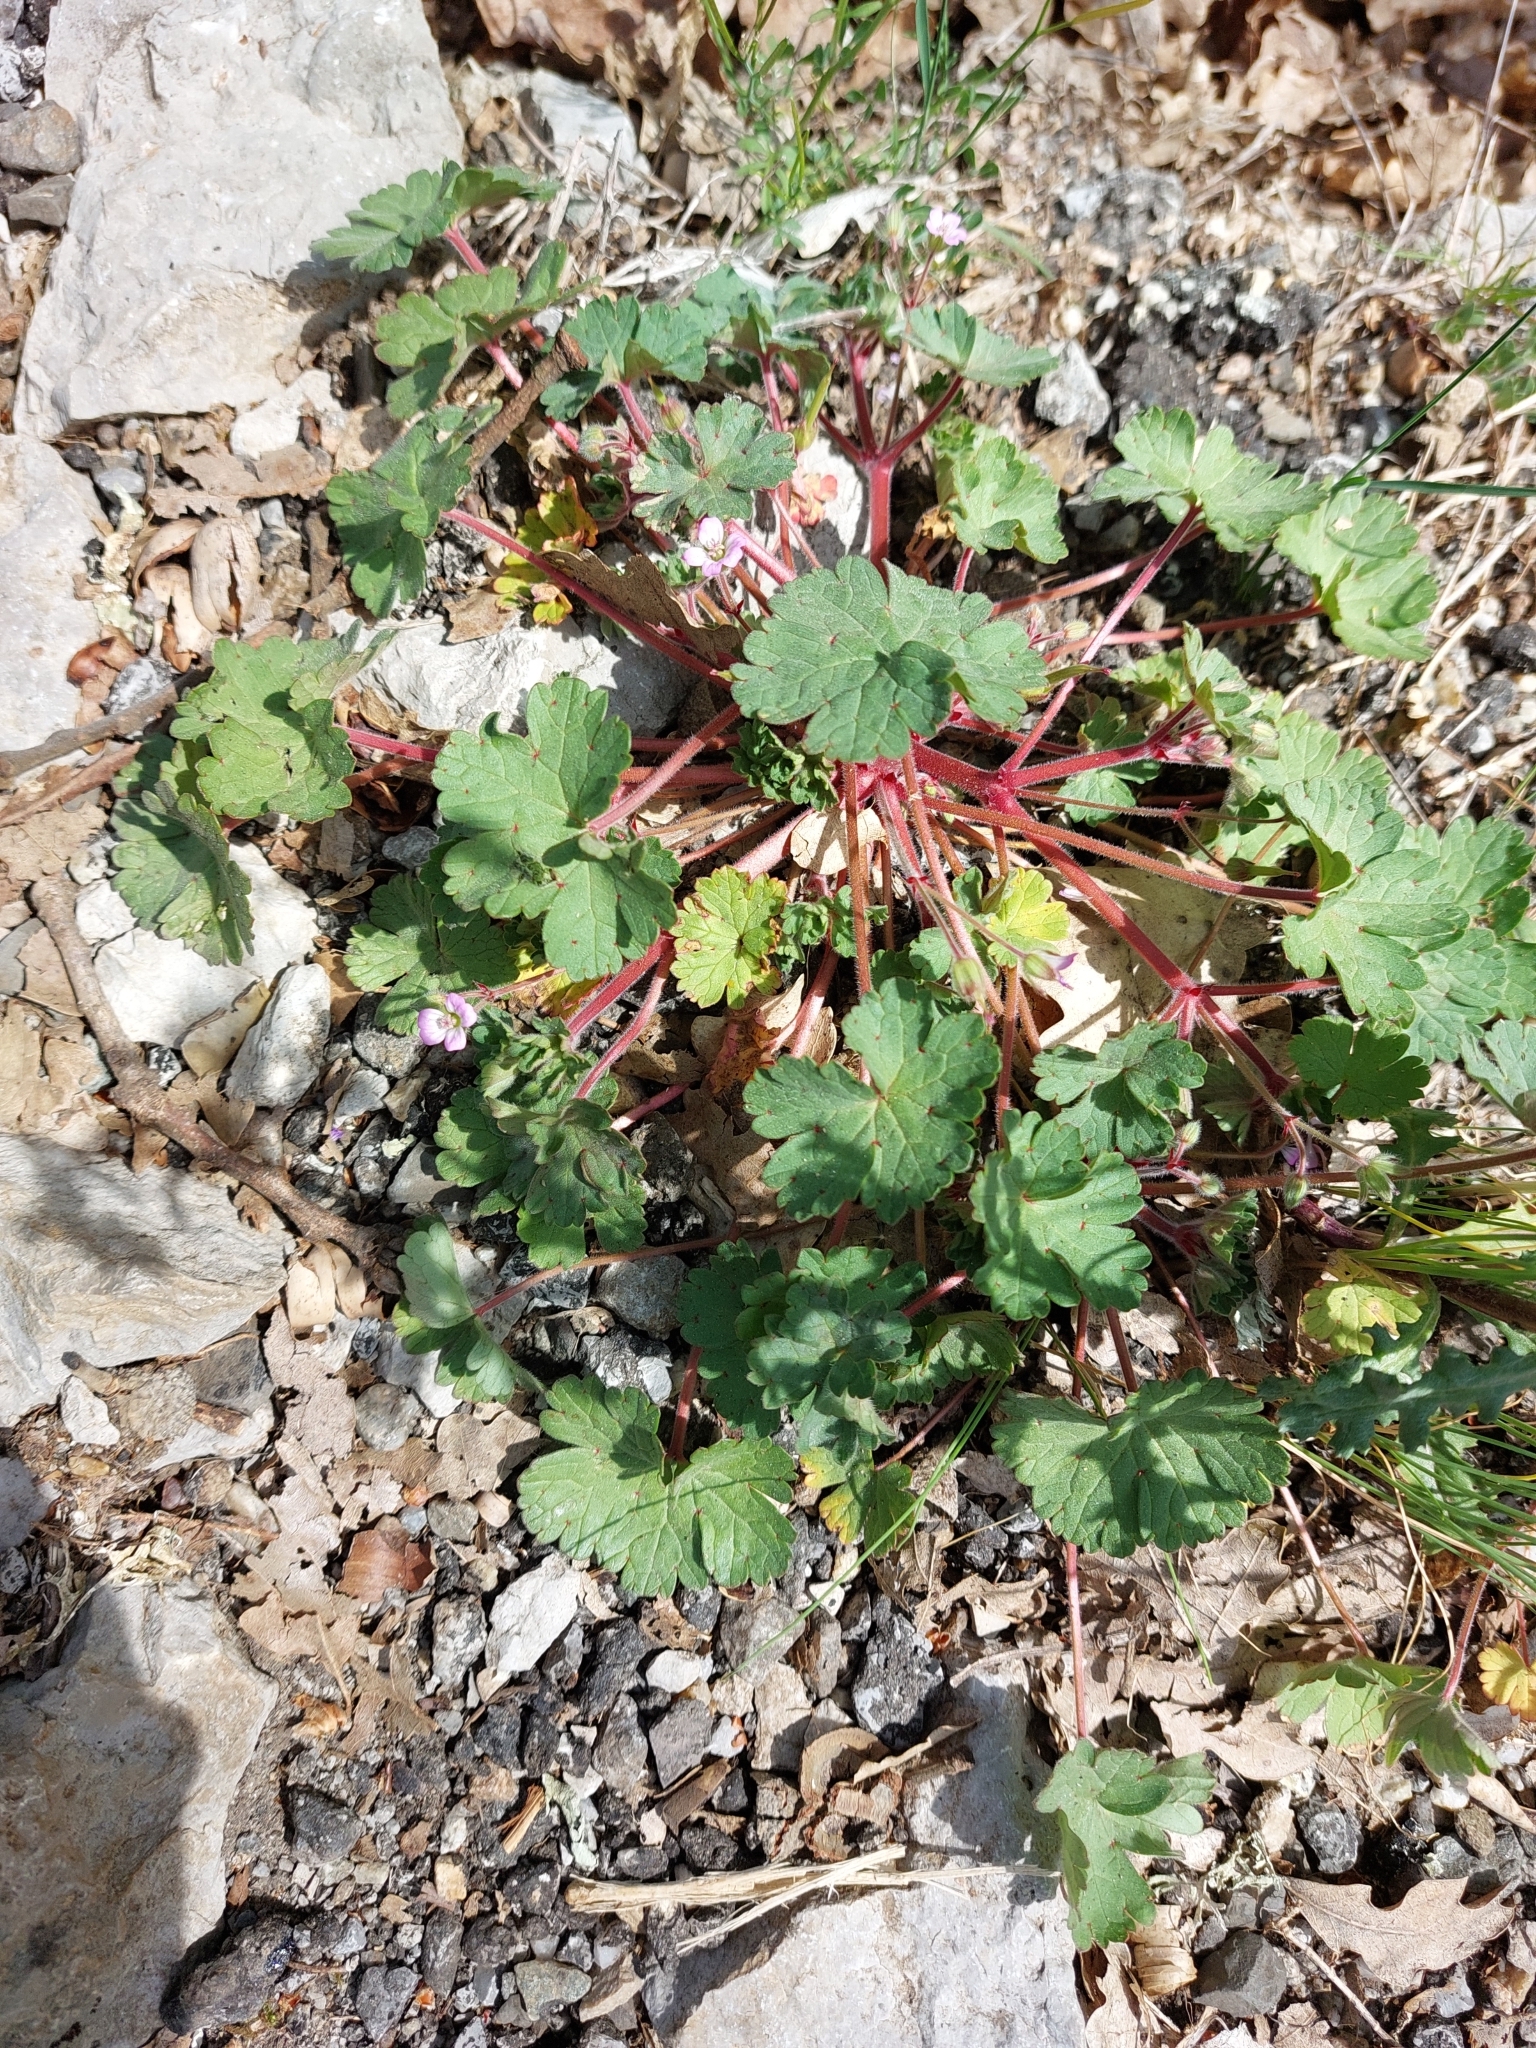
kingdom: Plantae
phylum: Tracheophyta
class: Magnoliopsida
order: Geraniales
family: Geraniaceae
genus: Geranium
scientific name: Geranium rotundifolium
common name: Round-leaved crane's-bill
